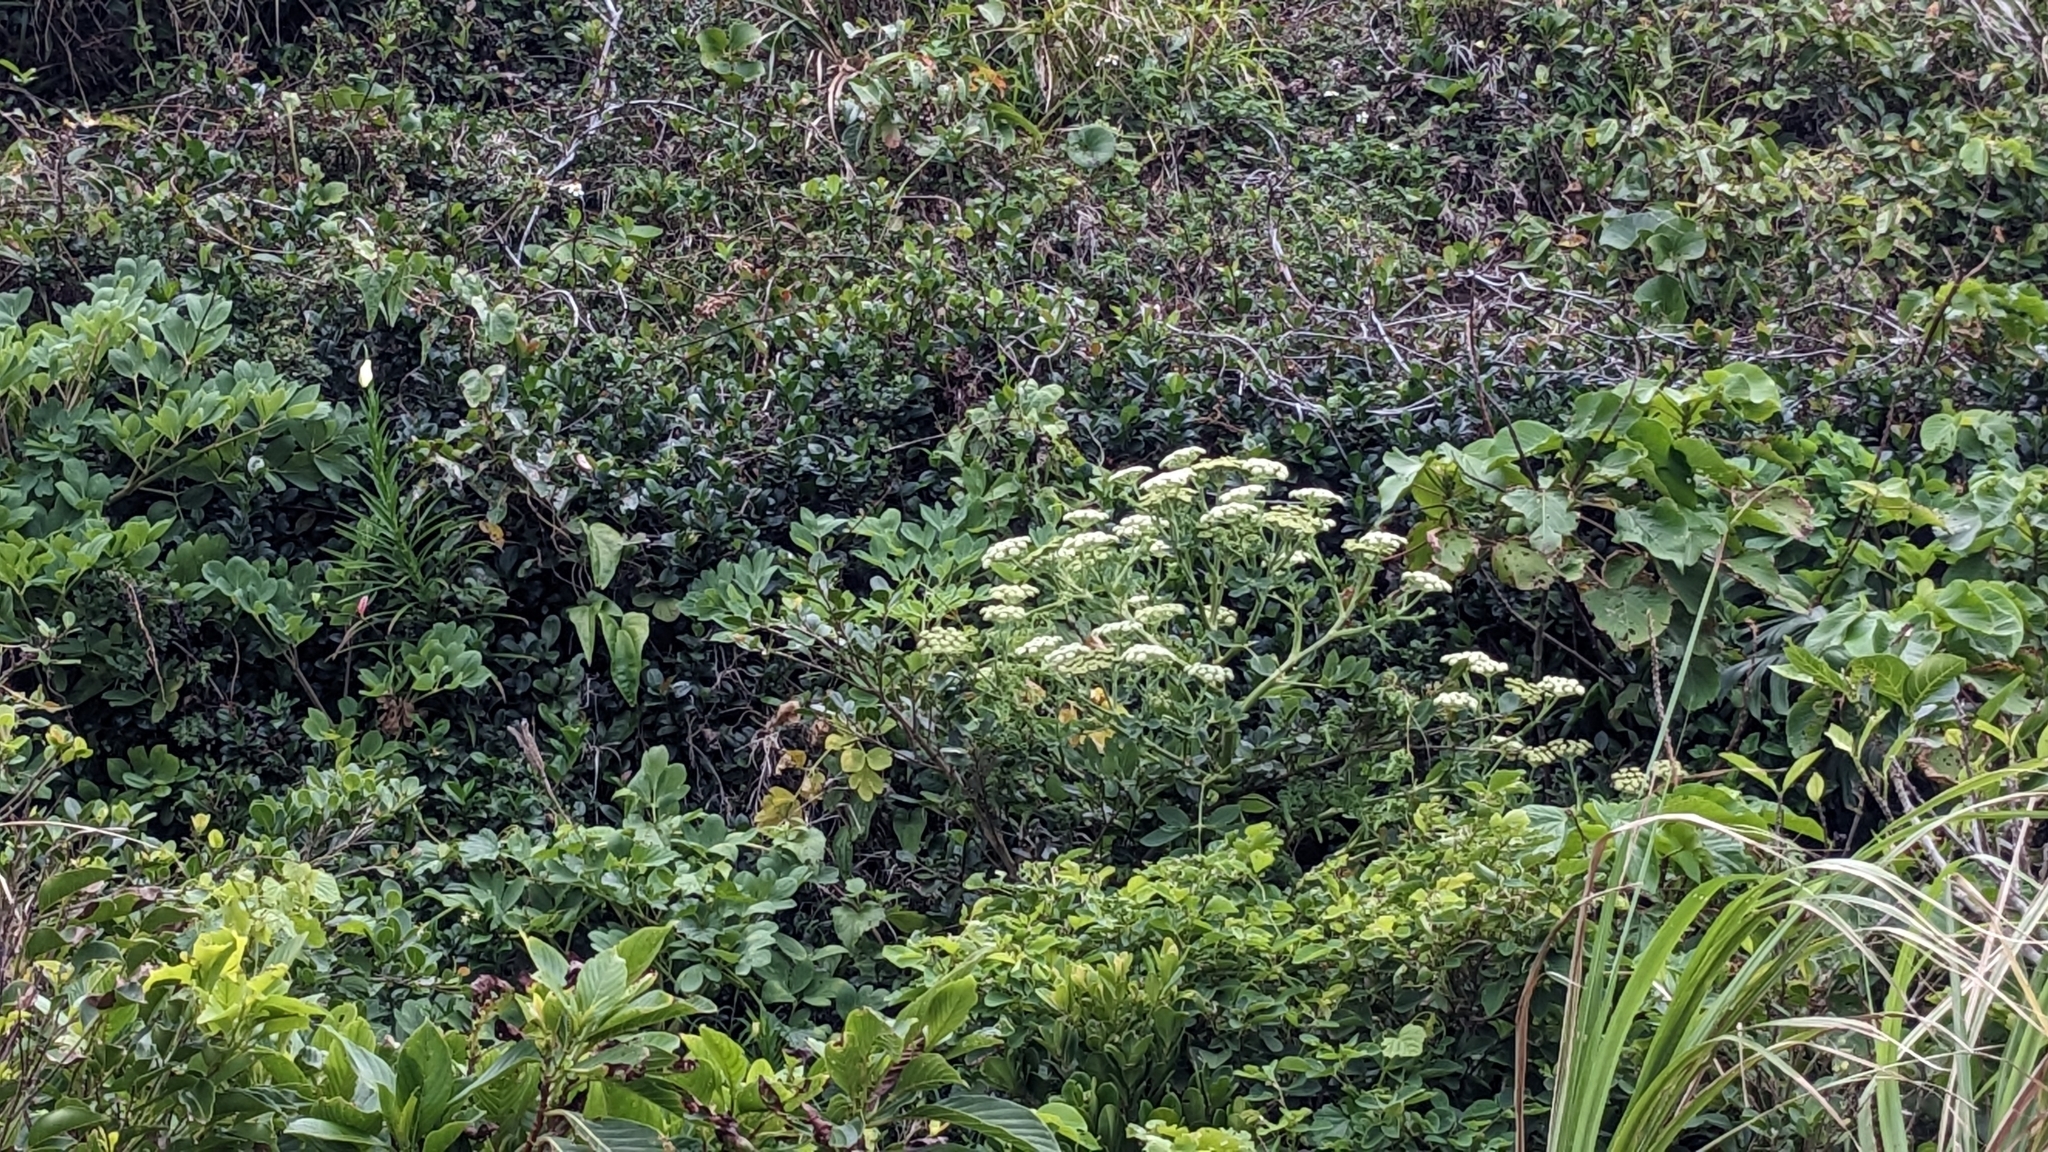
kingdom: Plantae
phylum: Tracheophyta
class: Magnoliopsida
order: Apiales
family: Apiaceae
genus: Peucedanum
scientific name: Peucedanum japonicum
